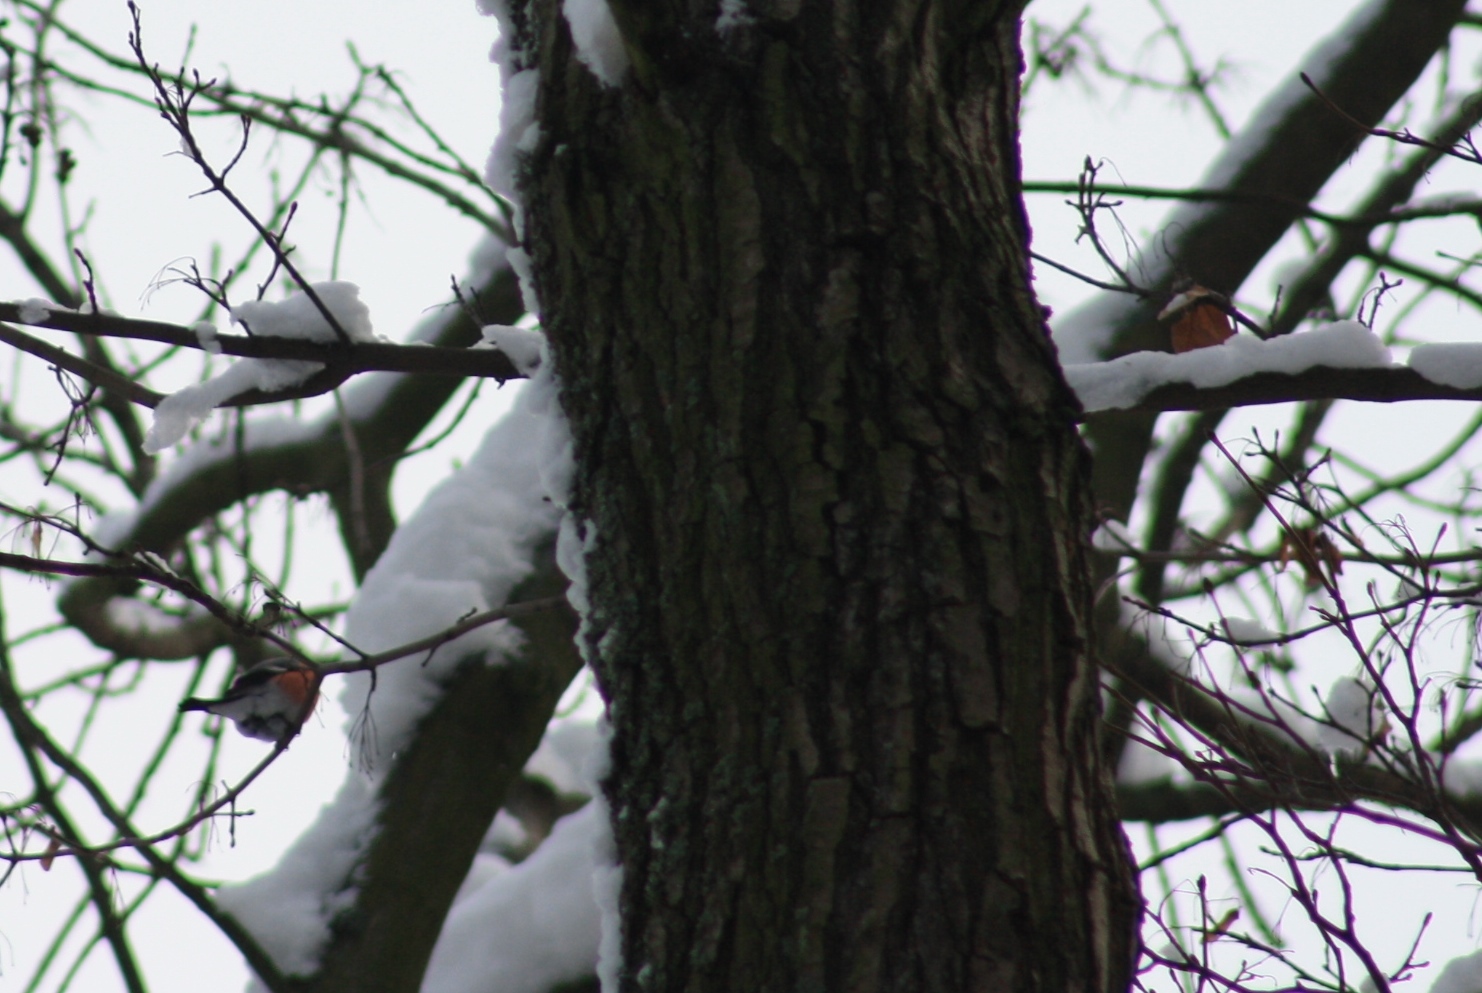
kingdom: Animalia
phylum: Chordata
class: Aves
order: Passeriformes
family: Fringillidae
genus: Pyrrhula
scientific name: Pyrrhula pyrrhula
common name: Eurasian bullfinch
